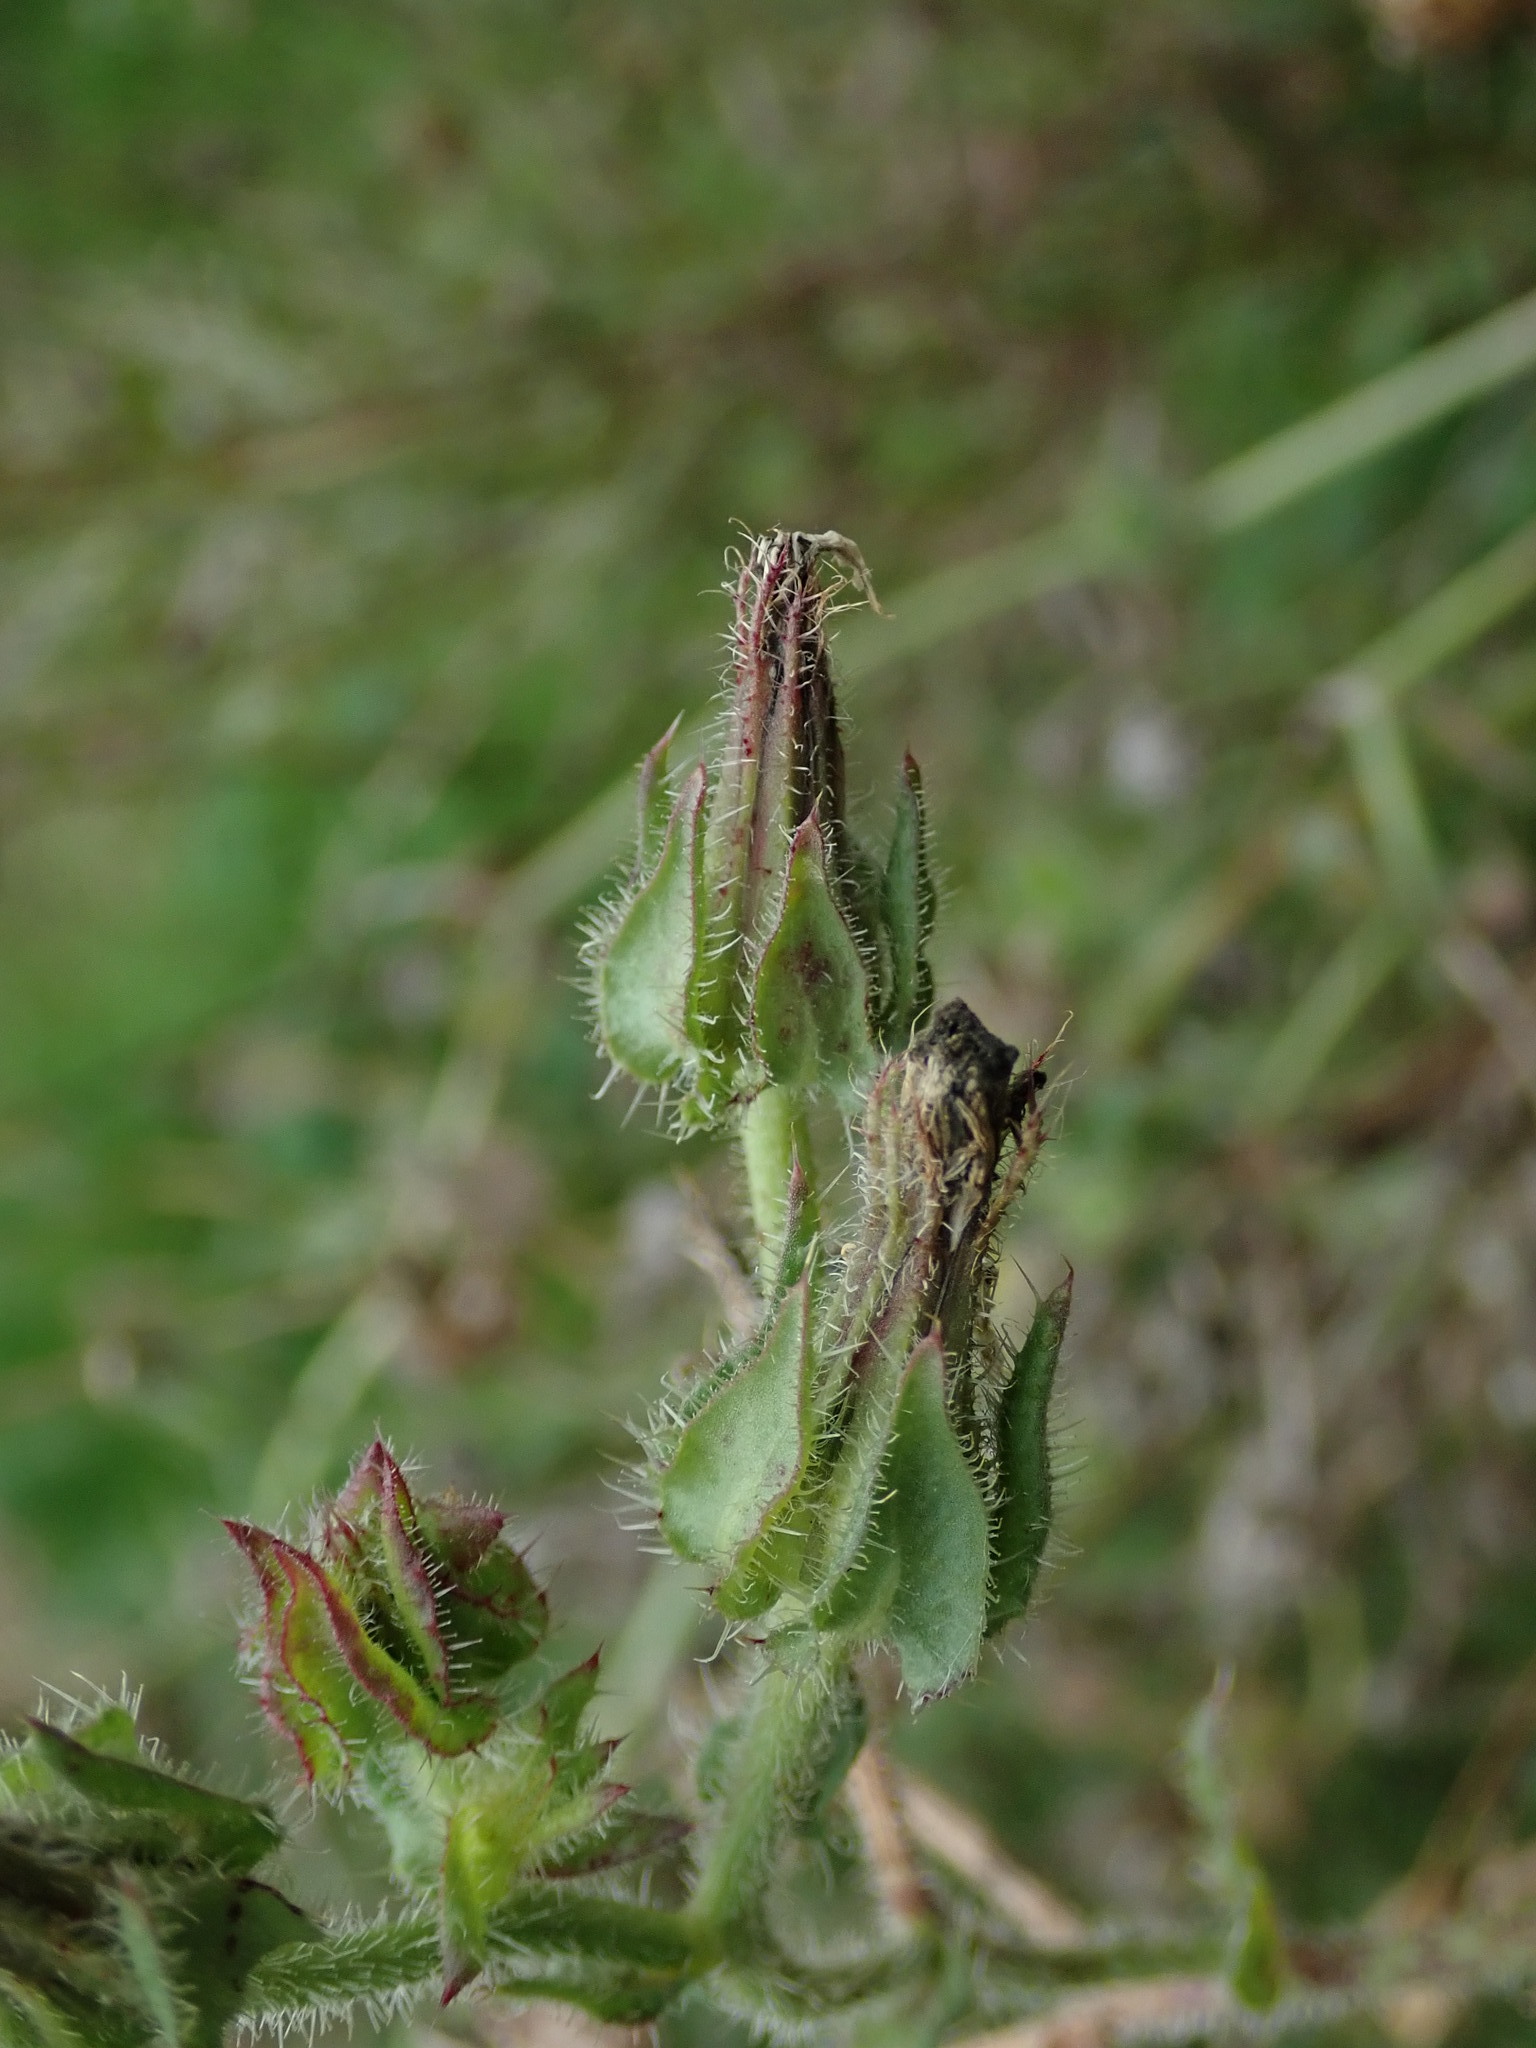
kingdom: Plantae
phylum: Tracheophyta
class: Magnoliopsida
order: Asterales
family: Asteraceae
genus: Helminthotheca
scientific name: Helminthotheca echioides
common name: Ox-tongue
